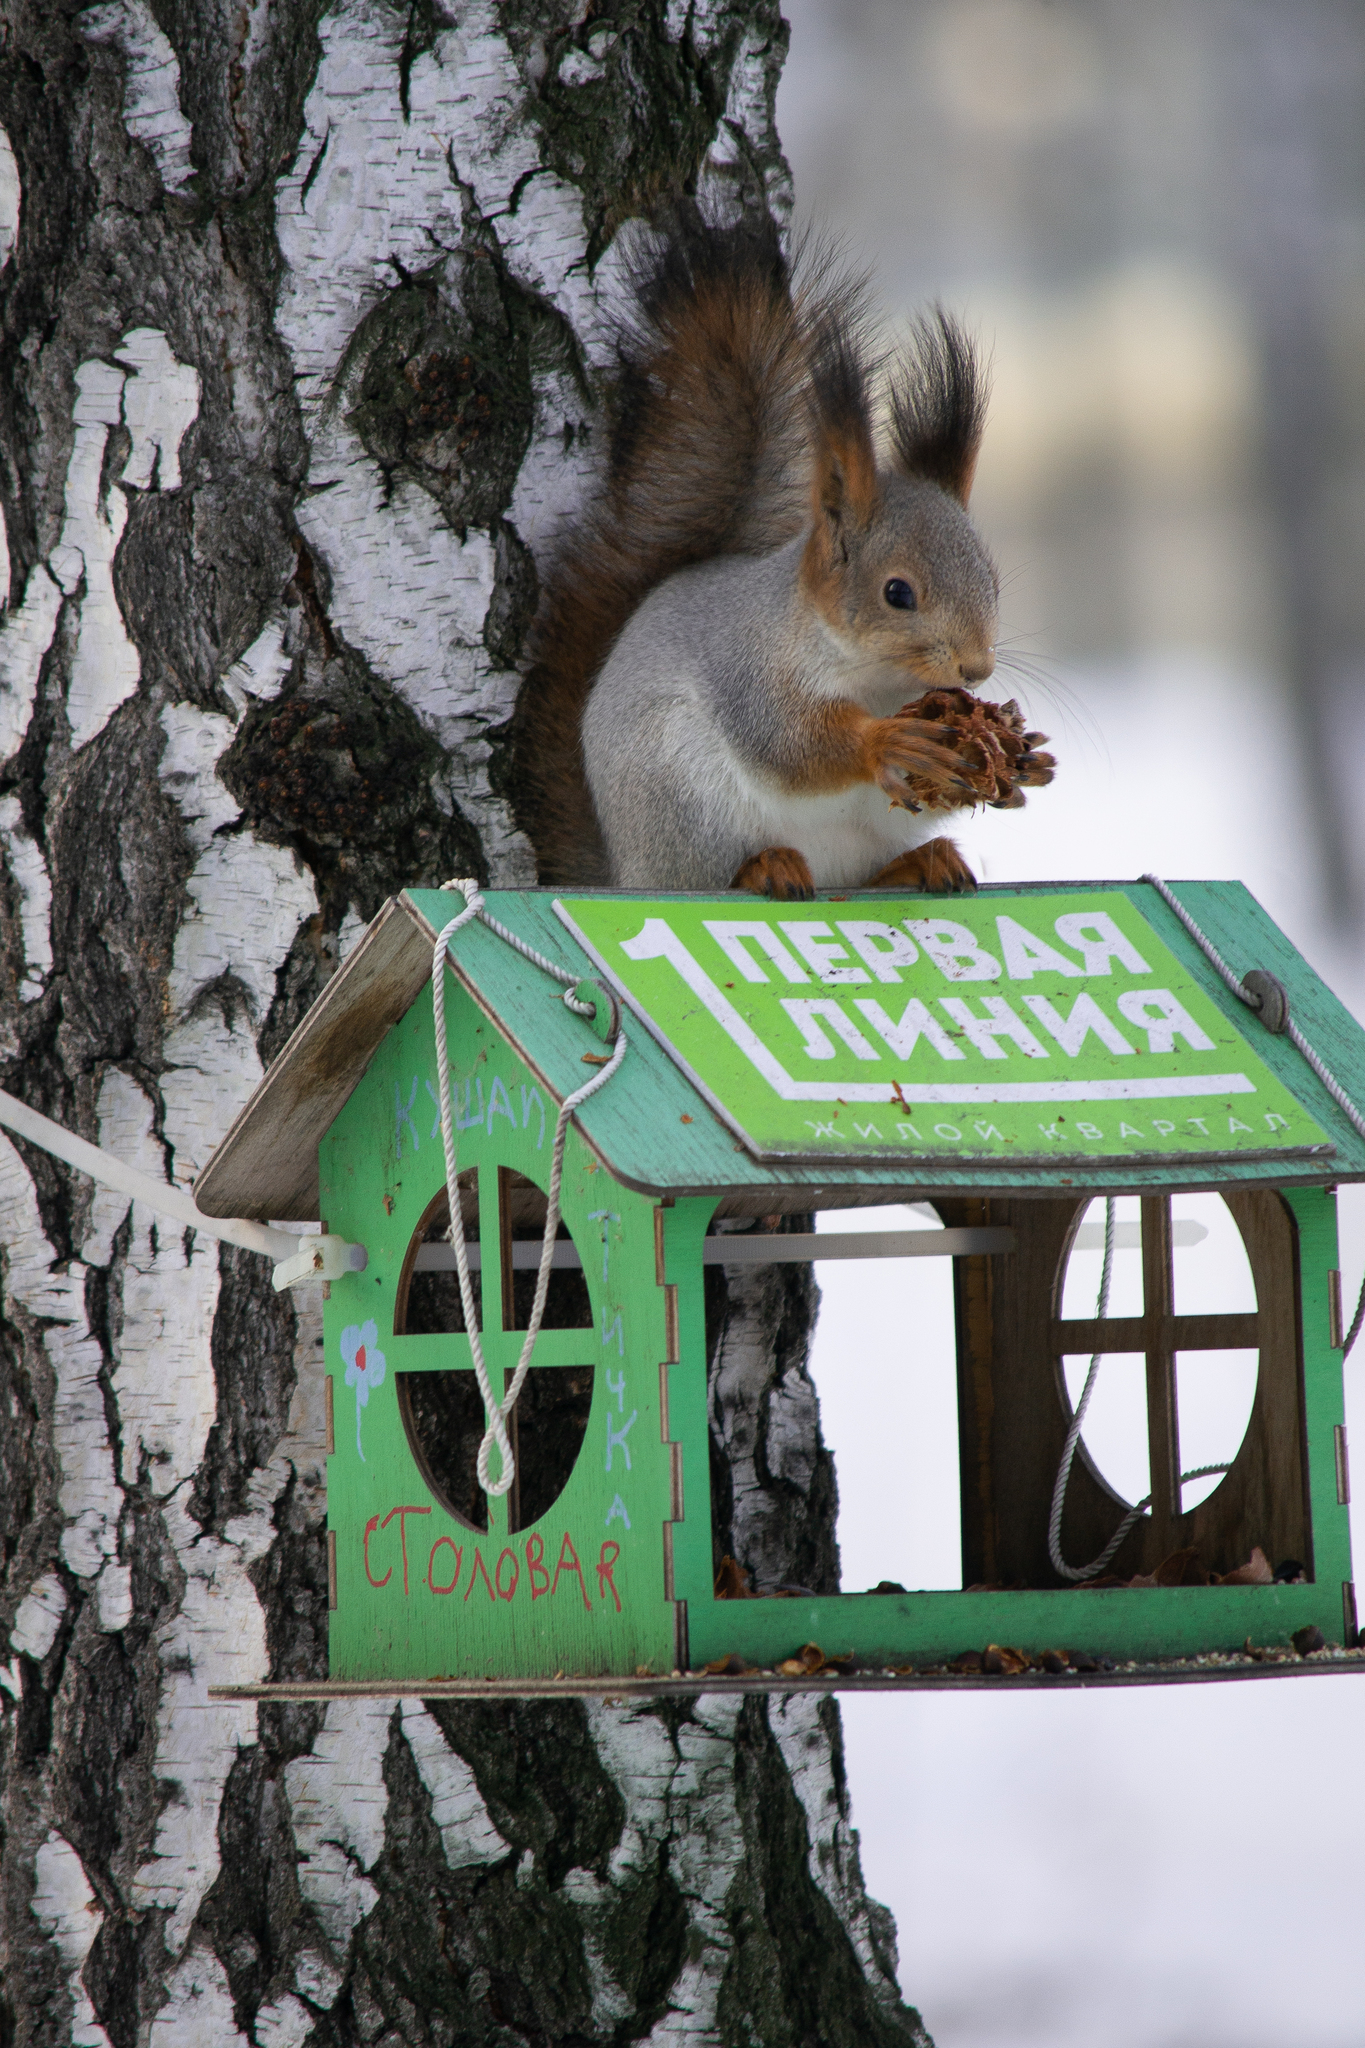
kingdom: Animalia
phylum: Chordata
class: Mammalia
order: Rodentia
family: Sciuridae
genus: Sciurus
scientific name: Sciurus vulgaris
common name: Eurasian red squirrel
